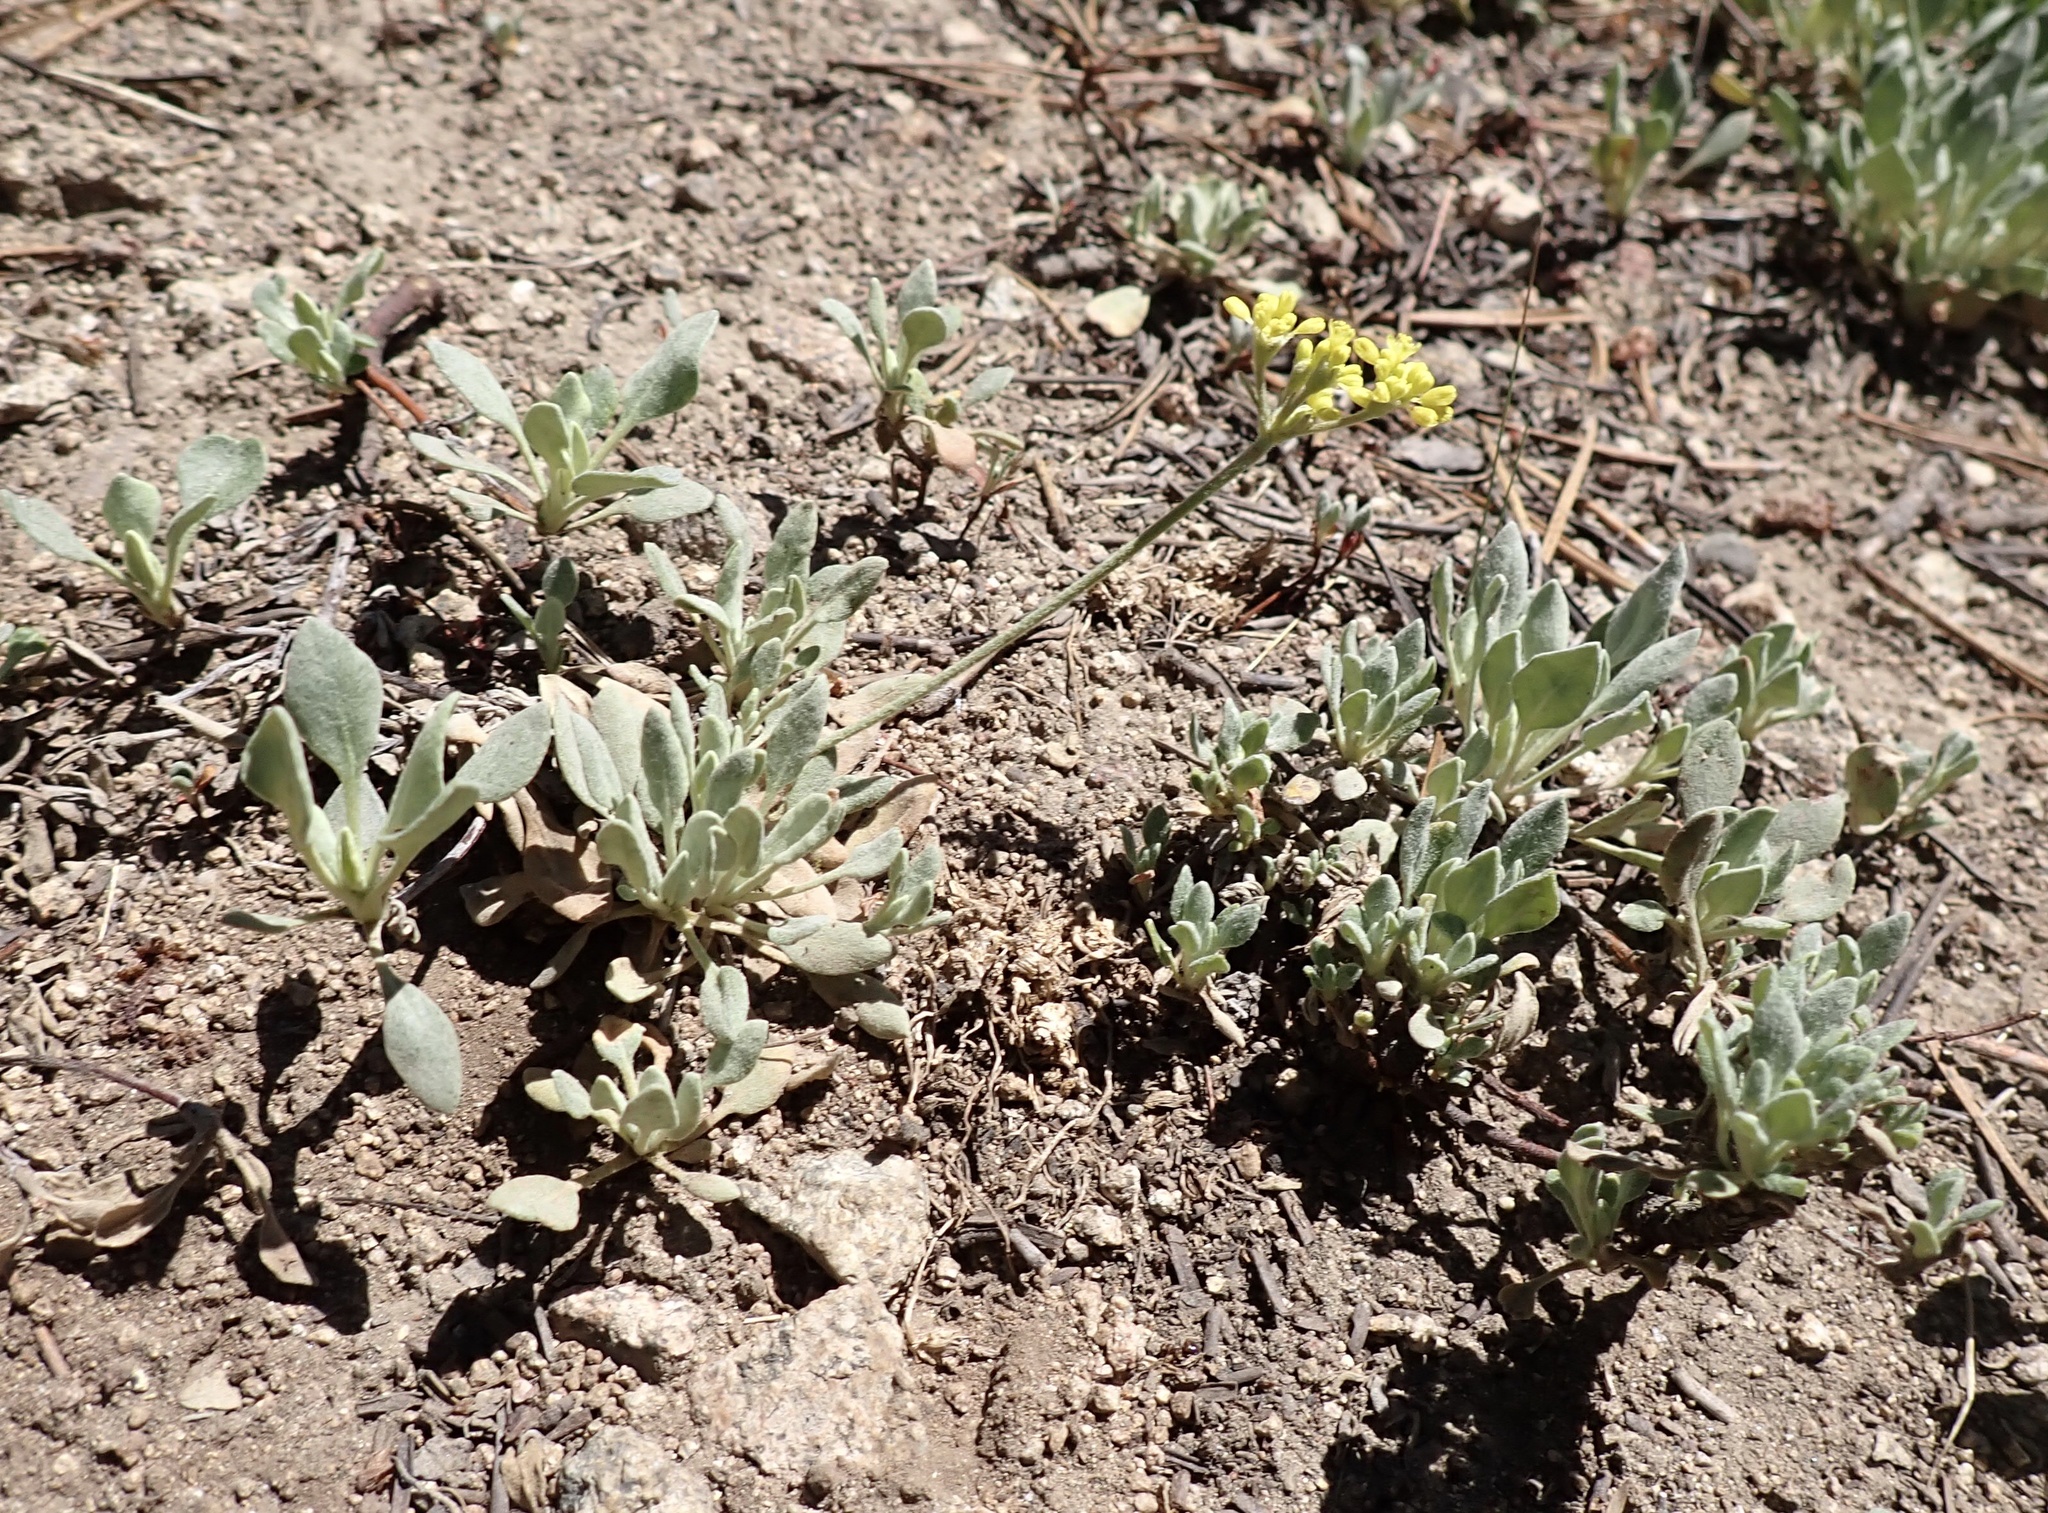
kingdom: Plantae
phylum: Tracheophyta
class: Magnoliopsida
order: Caryophyllales
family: Polygonaceae
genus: Eriogonum
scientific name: Eriogonum incanum
